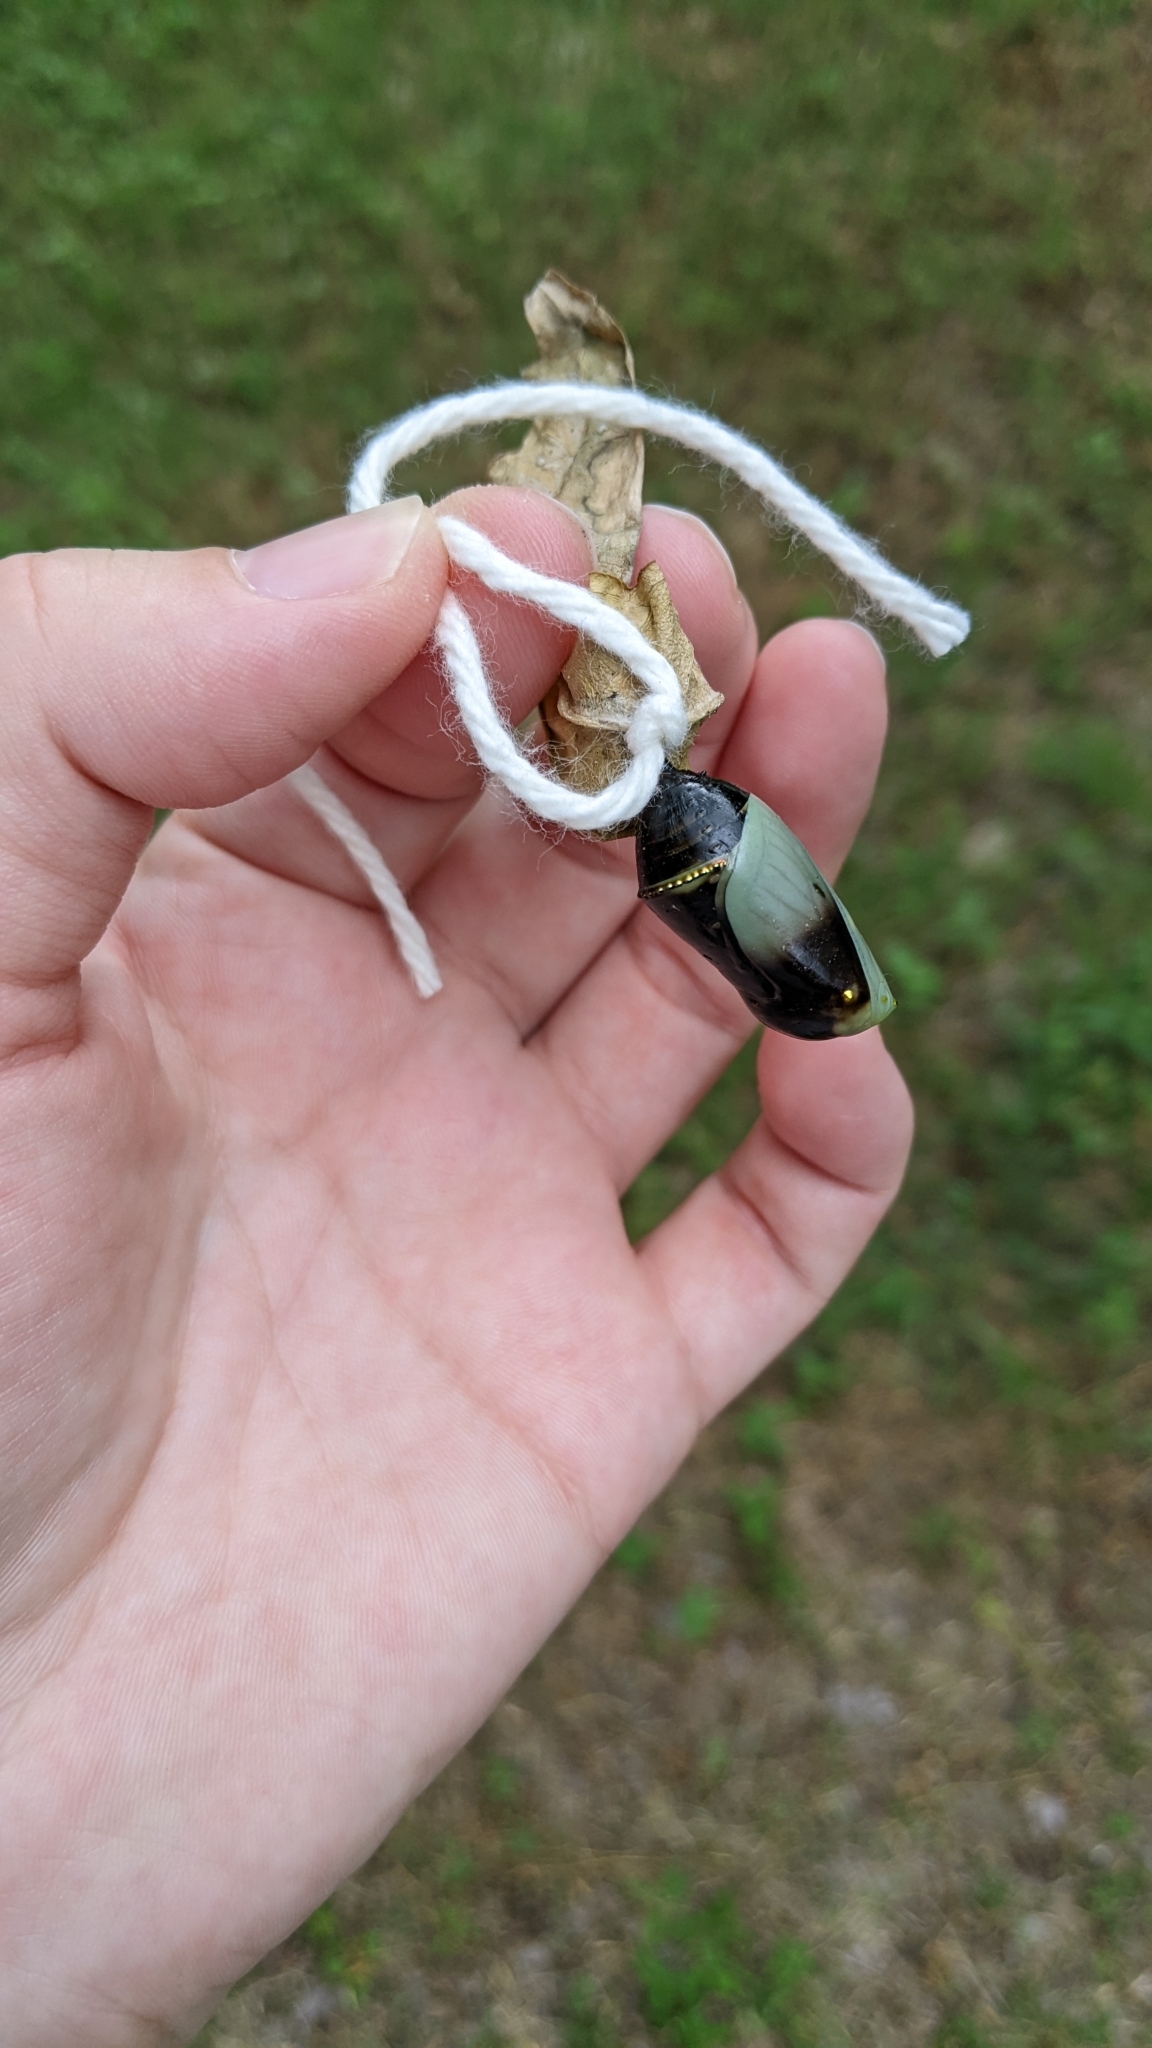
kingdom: Animalia
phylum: Arthropoda
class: Insecta
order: Lepidoptera
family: Nymphalidae
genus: Danaus
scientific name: Danaus plexippus
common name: Monarch
